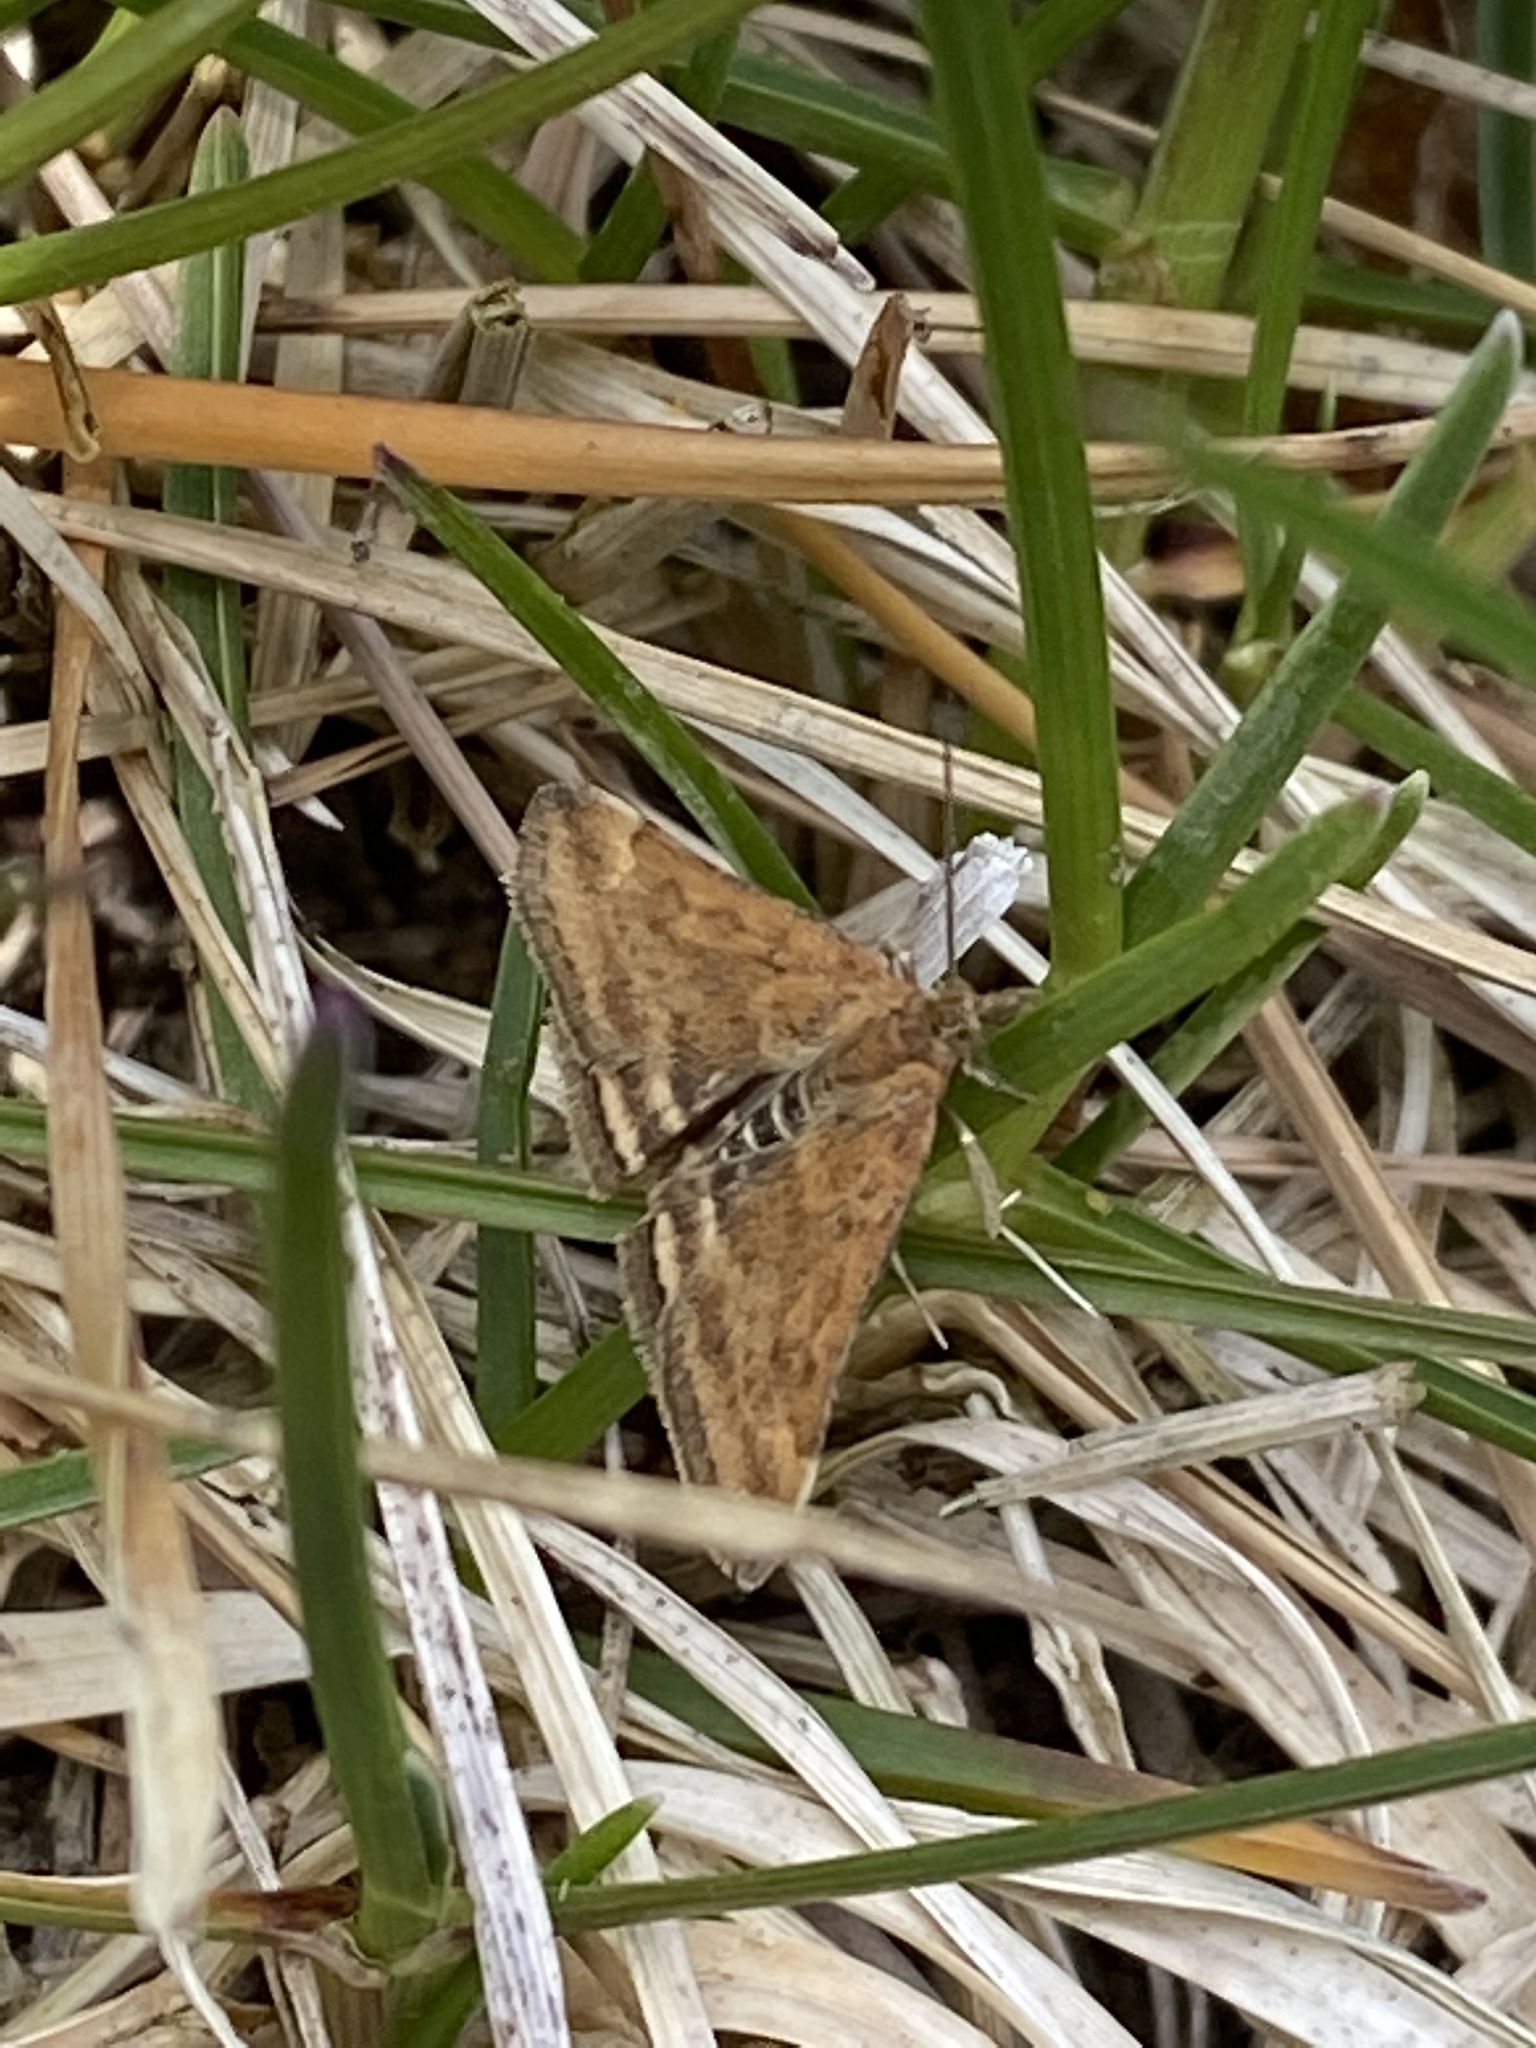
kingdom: Animalia
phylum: Arthropoda
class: Insecta
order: Lepidoptera
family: Crambidae
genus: Pyrausta
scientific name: Pyrausta despicata
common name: Straw-barred pearl
